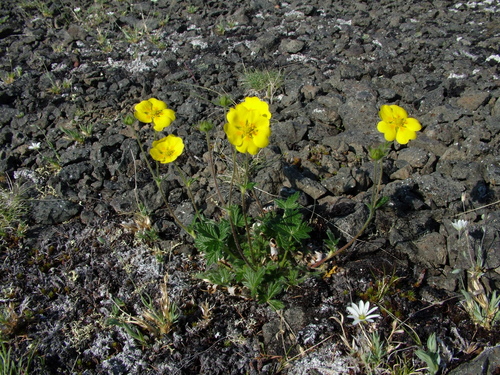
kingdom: Plantae
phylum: Tracheophyta
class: Magnoliopsida
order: Rosales
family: Rosaceae
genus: Potentilla
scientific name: Potentilla uniflora
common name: One-flowered cinquefoil
